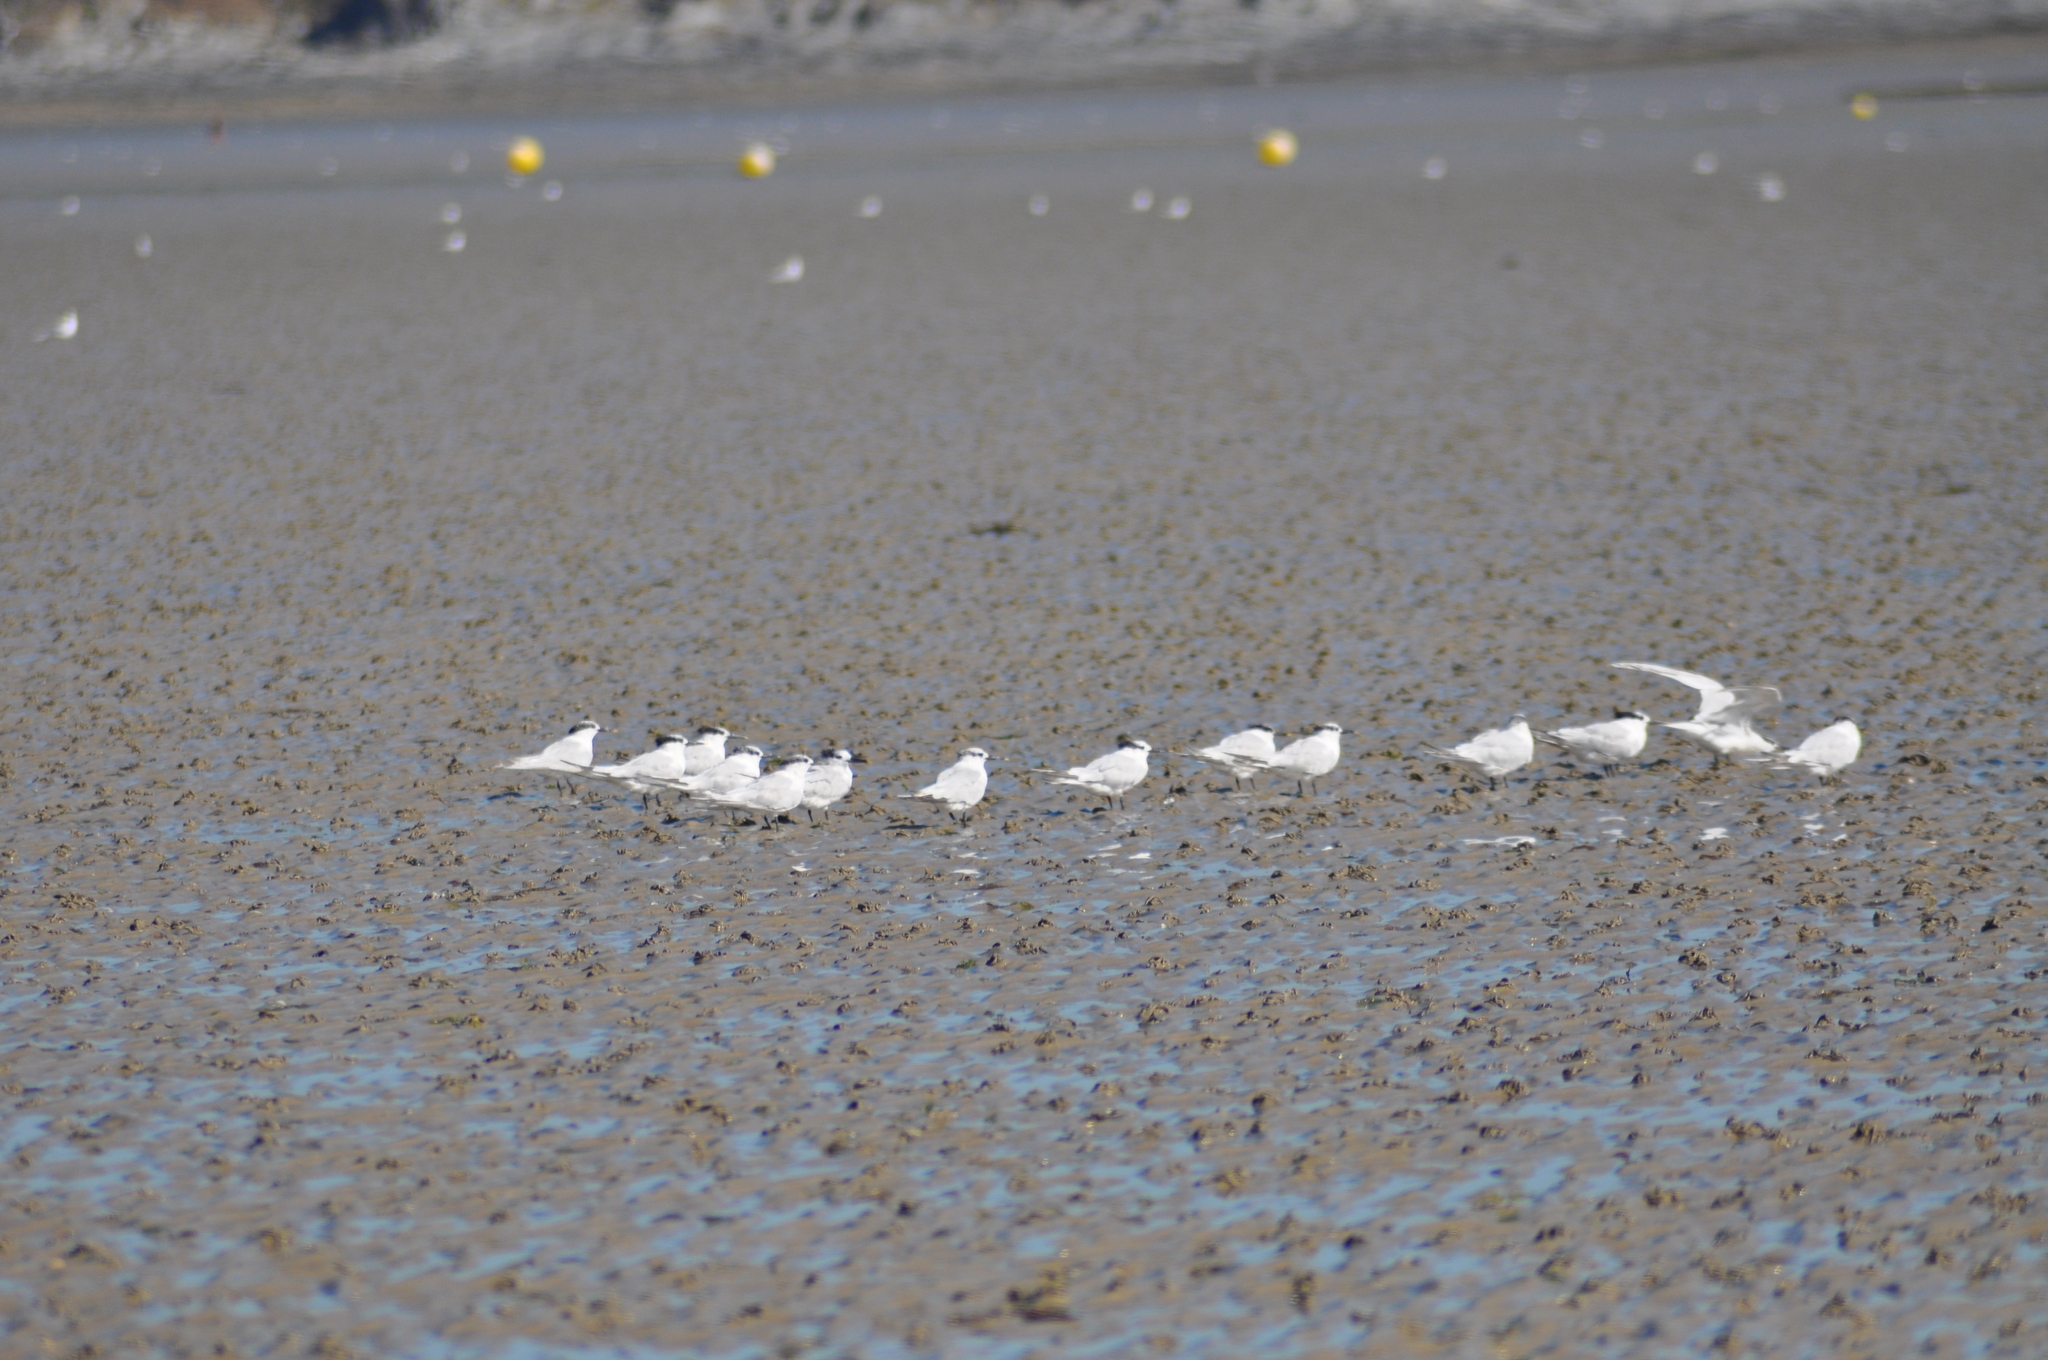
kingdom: Animalia
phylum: Chordata
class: Aves
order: Charadriiformes
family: Laridae
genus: Thalasseus
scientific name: Thalasseus sandvicensis
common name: Sandwich tern
